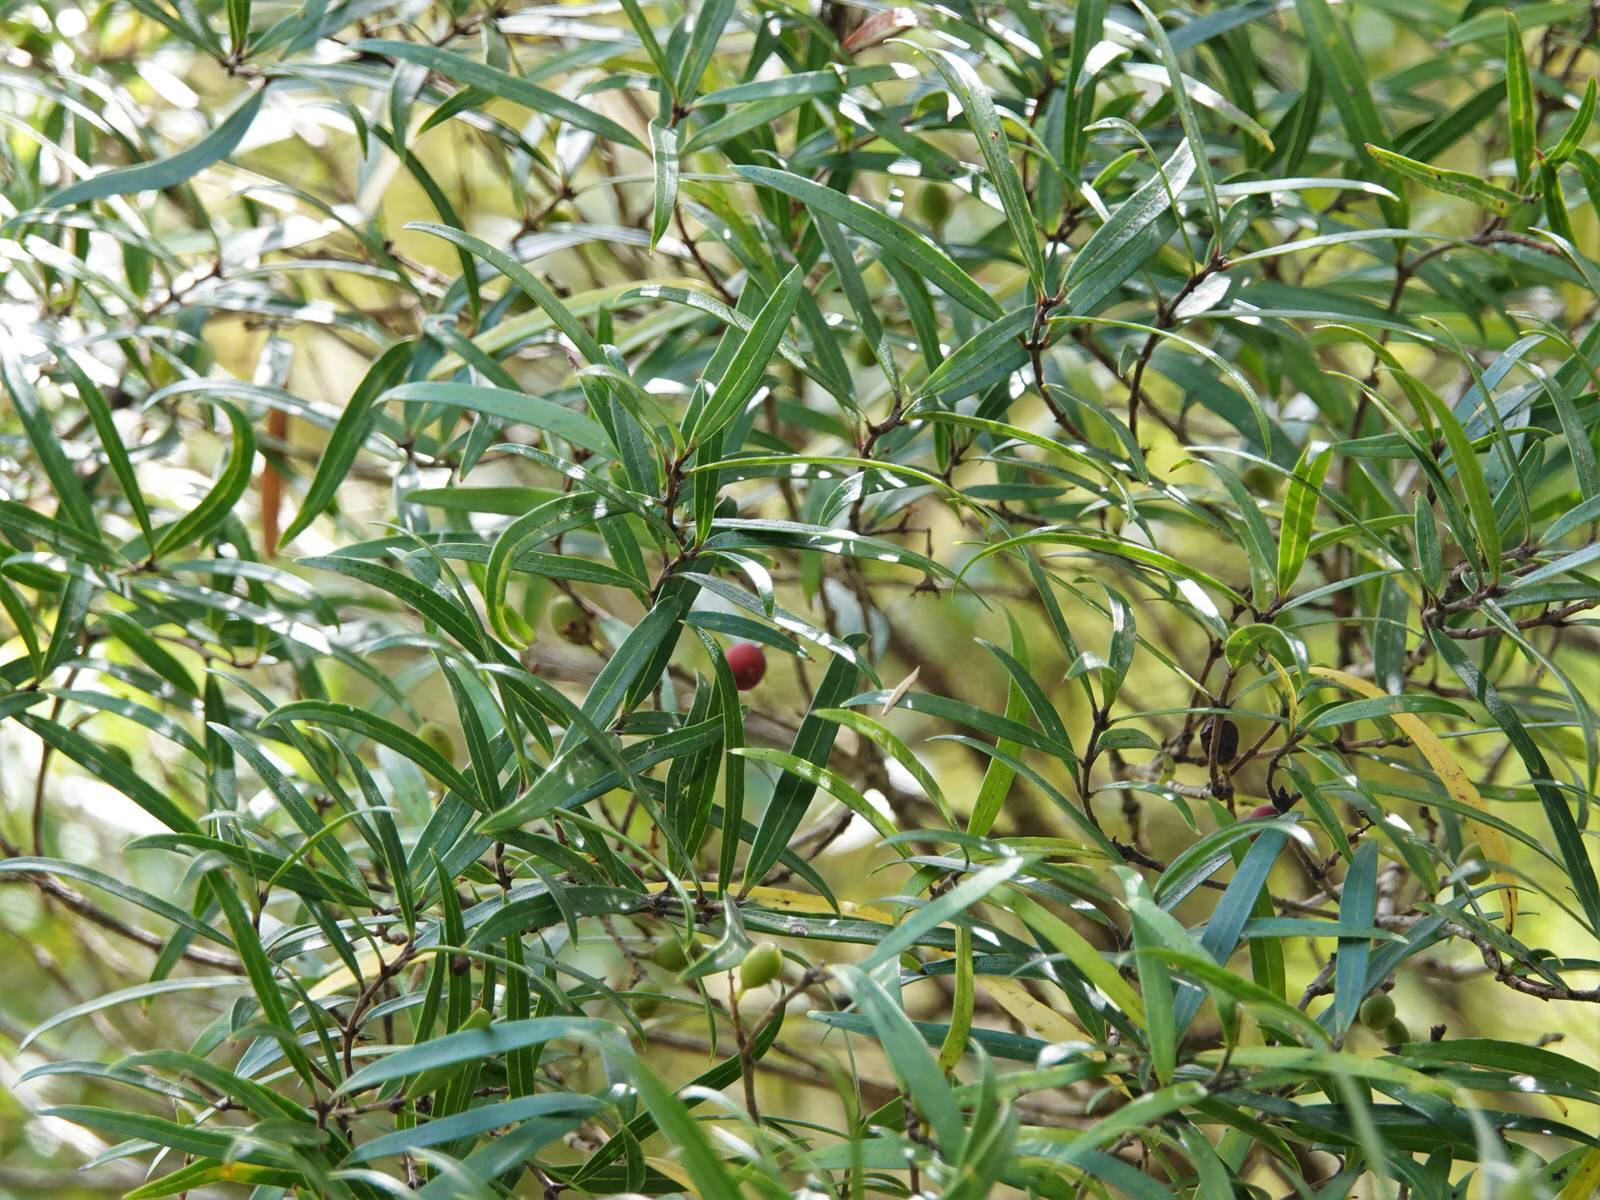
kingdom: Plantae
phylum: Tracheophyta
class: Magnoliopsida
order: Lamiales
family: Oleaceae
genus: Nestegis
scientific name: Nestegis montana
